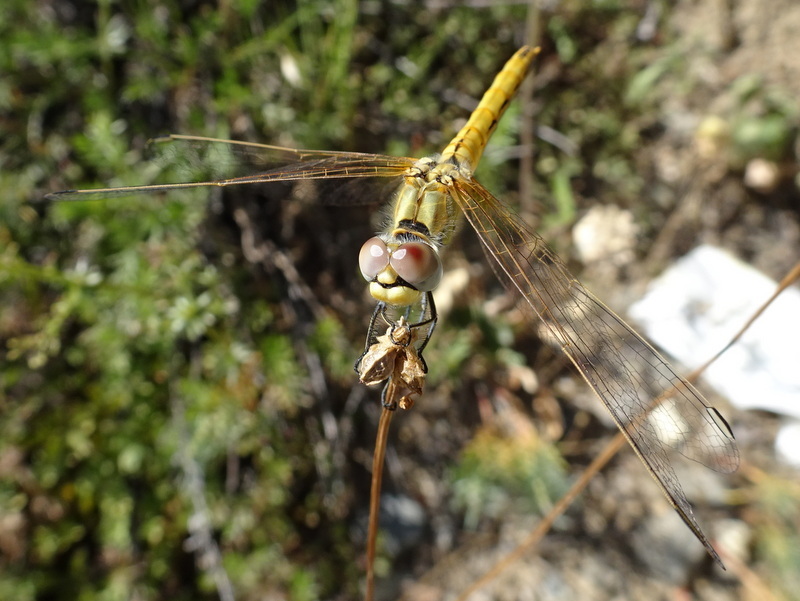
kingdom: Animalia
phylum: Arthropoda
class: Insecta
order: Odonata
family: Libellulidae
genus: Sympetrum
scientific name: Sympetrum fonscolombii
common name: Red-veined darter
